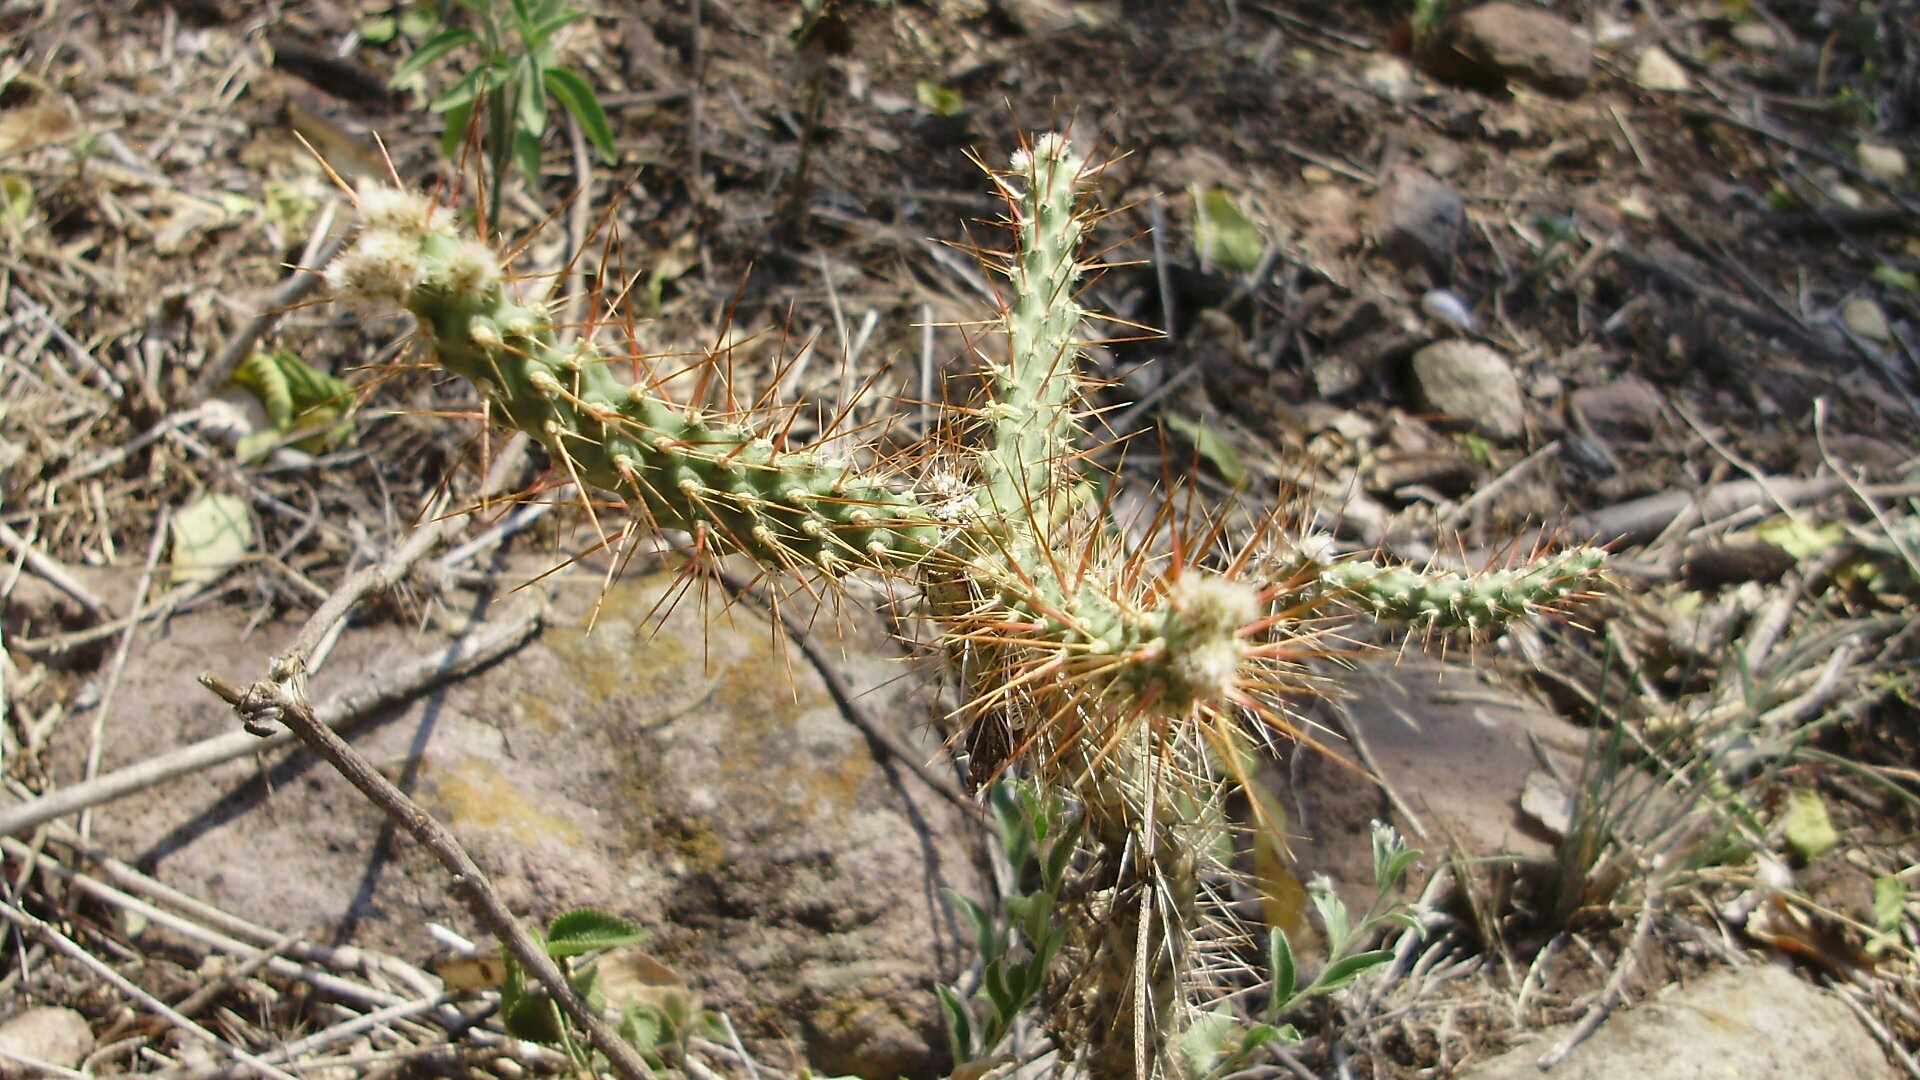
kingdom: Plantae
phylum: Tracheophyta
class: Magnoliopsida
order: Caryophyllales
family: Cactaceae
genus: Opuntia
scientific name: Opuntia pubescens
